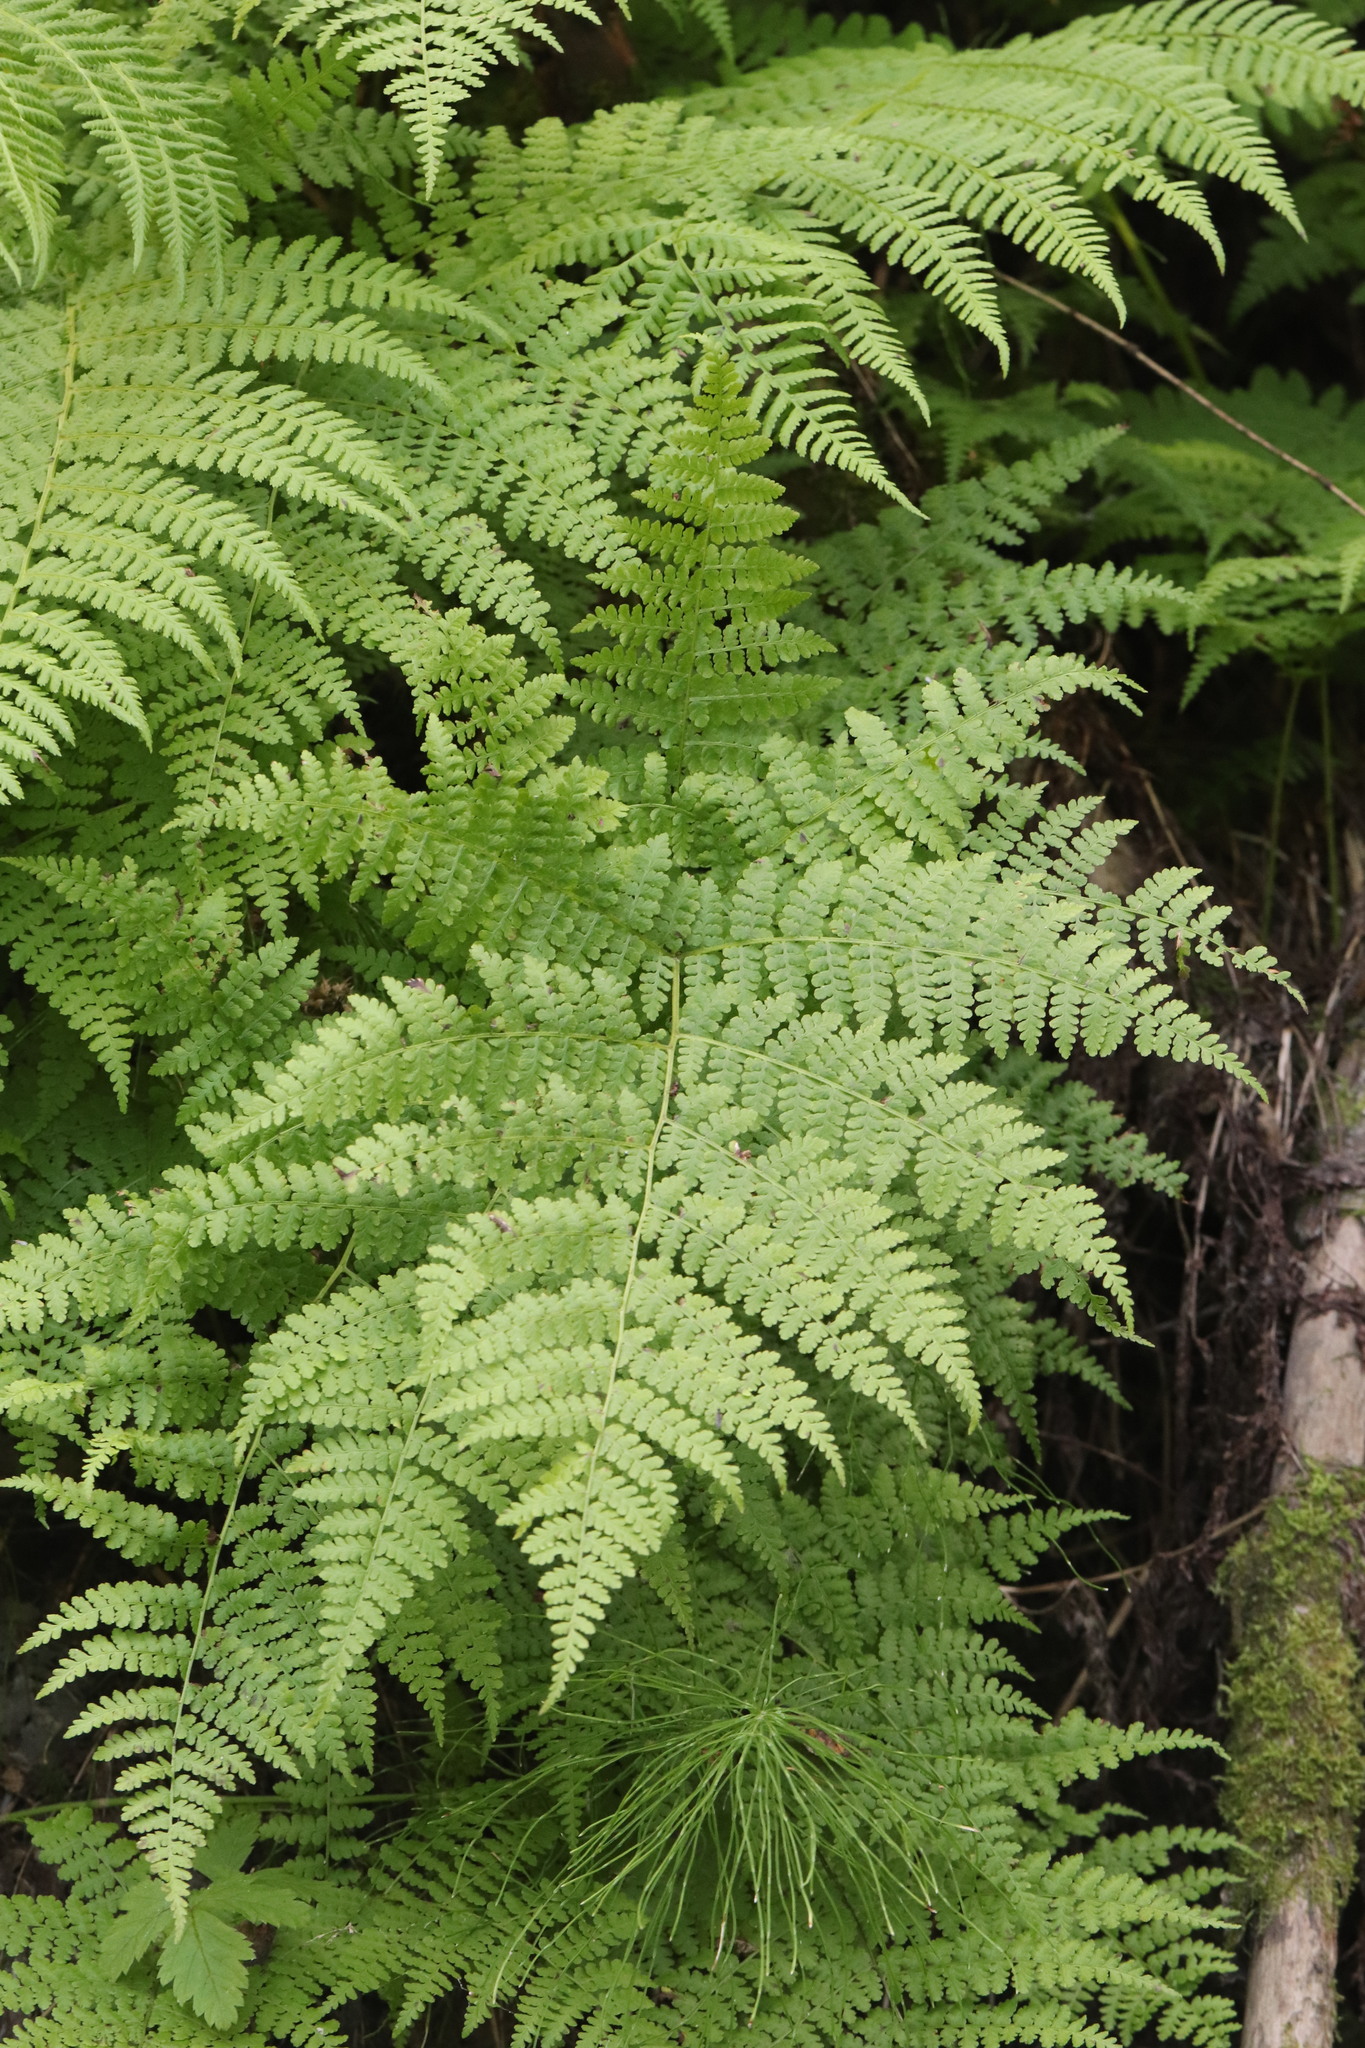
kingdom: Plantae
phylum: Tracheophyta
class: Polypodiopsida
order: Polypodiales
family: Athyriaceae
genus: Diplazium
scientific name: Diplazium sibiricum
